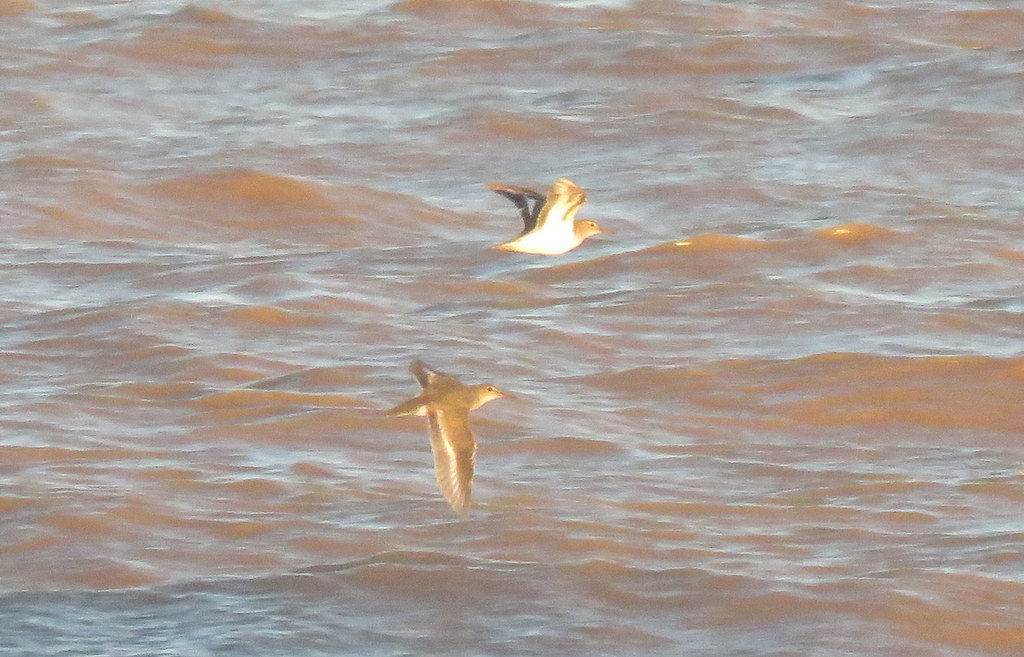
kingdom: Animalia
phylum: Chordata
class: Aves
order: Charadriiformes
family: Scolopacidae
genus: Actitis
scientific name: Actitis macularius
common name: Spotted sandpiper
